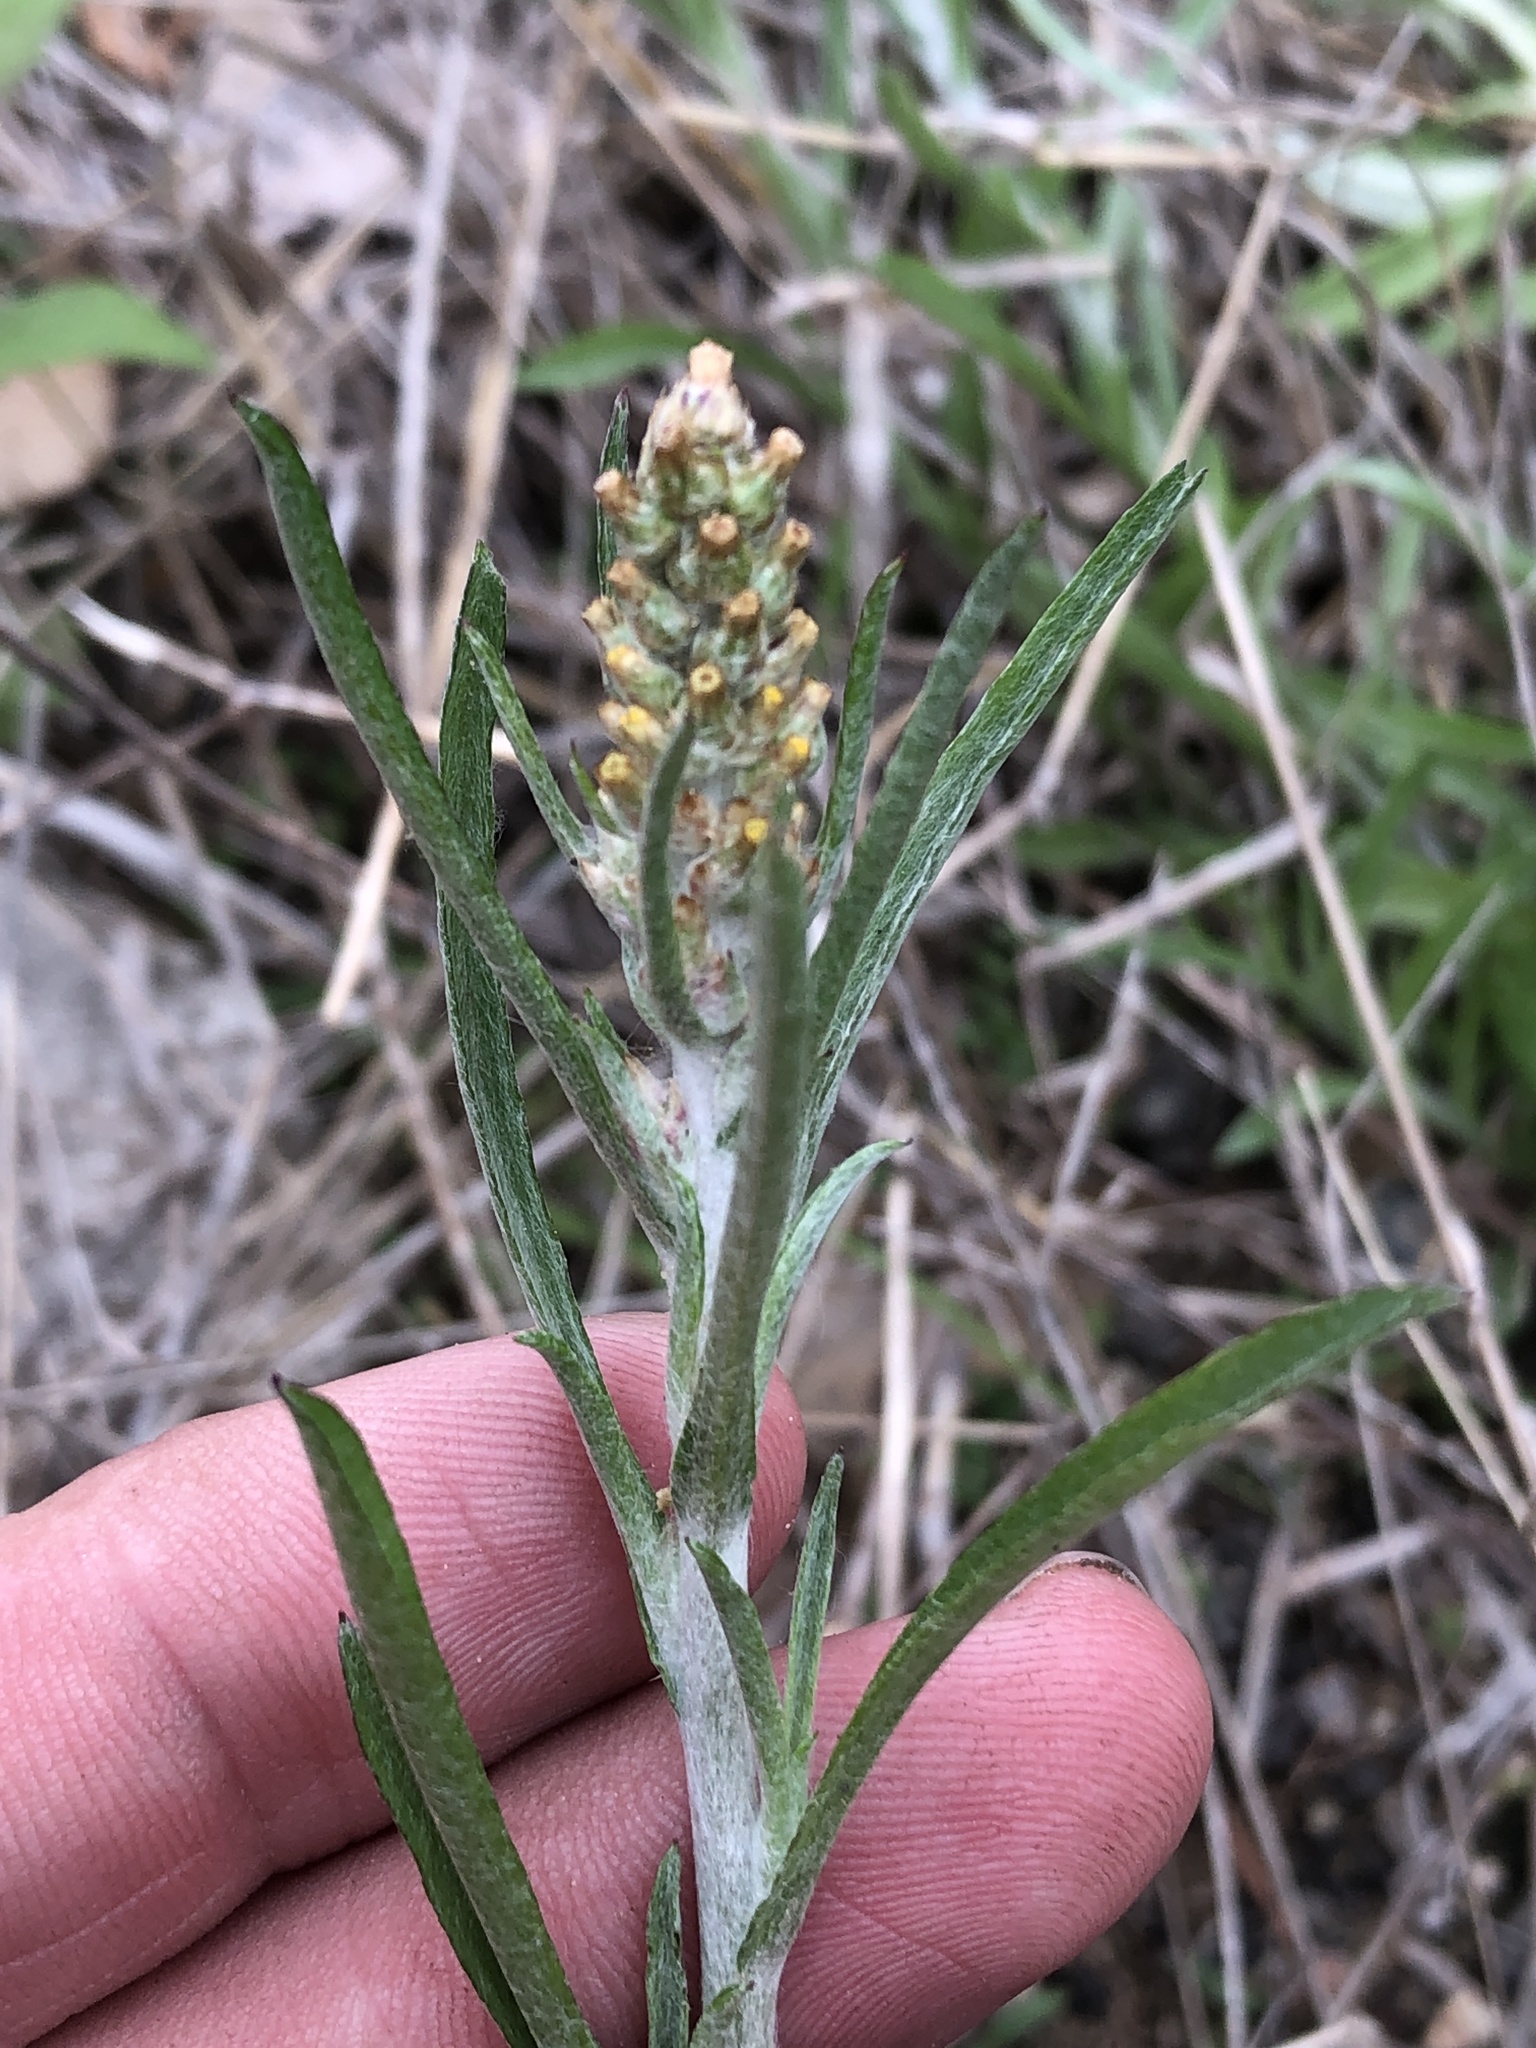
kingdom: Plantae
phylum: Tracheophyta
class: Magnoliopsida
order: Asterales
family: Asteraceae
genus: Gamochaeta
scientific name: Gamochaeta pensylvanica
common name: Pennsylvania everlasting
